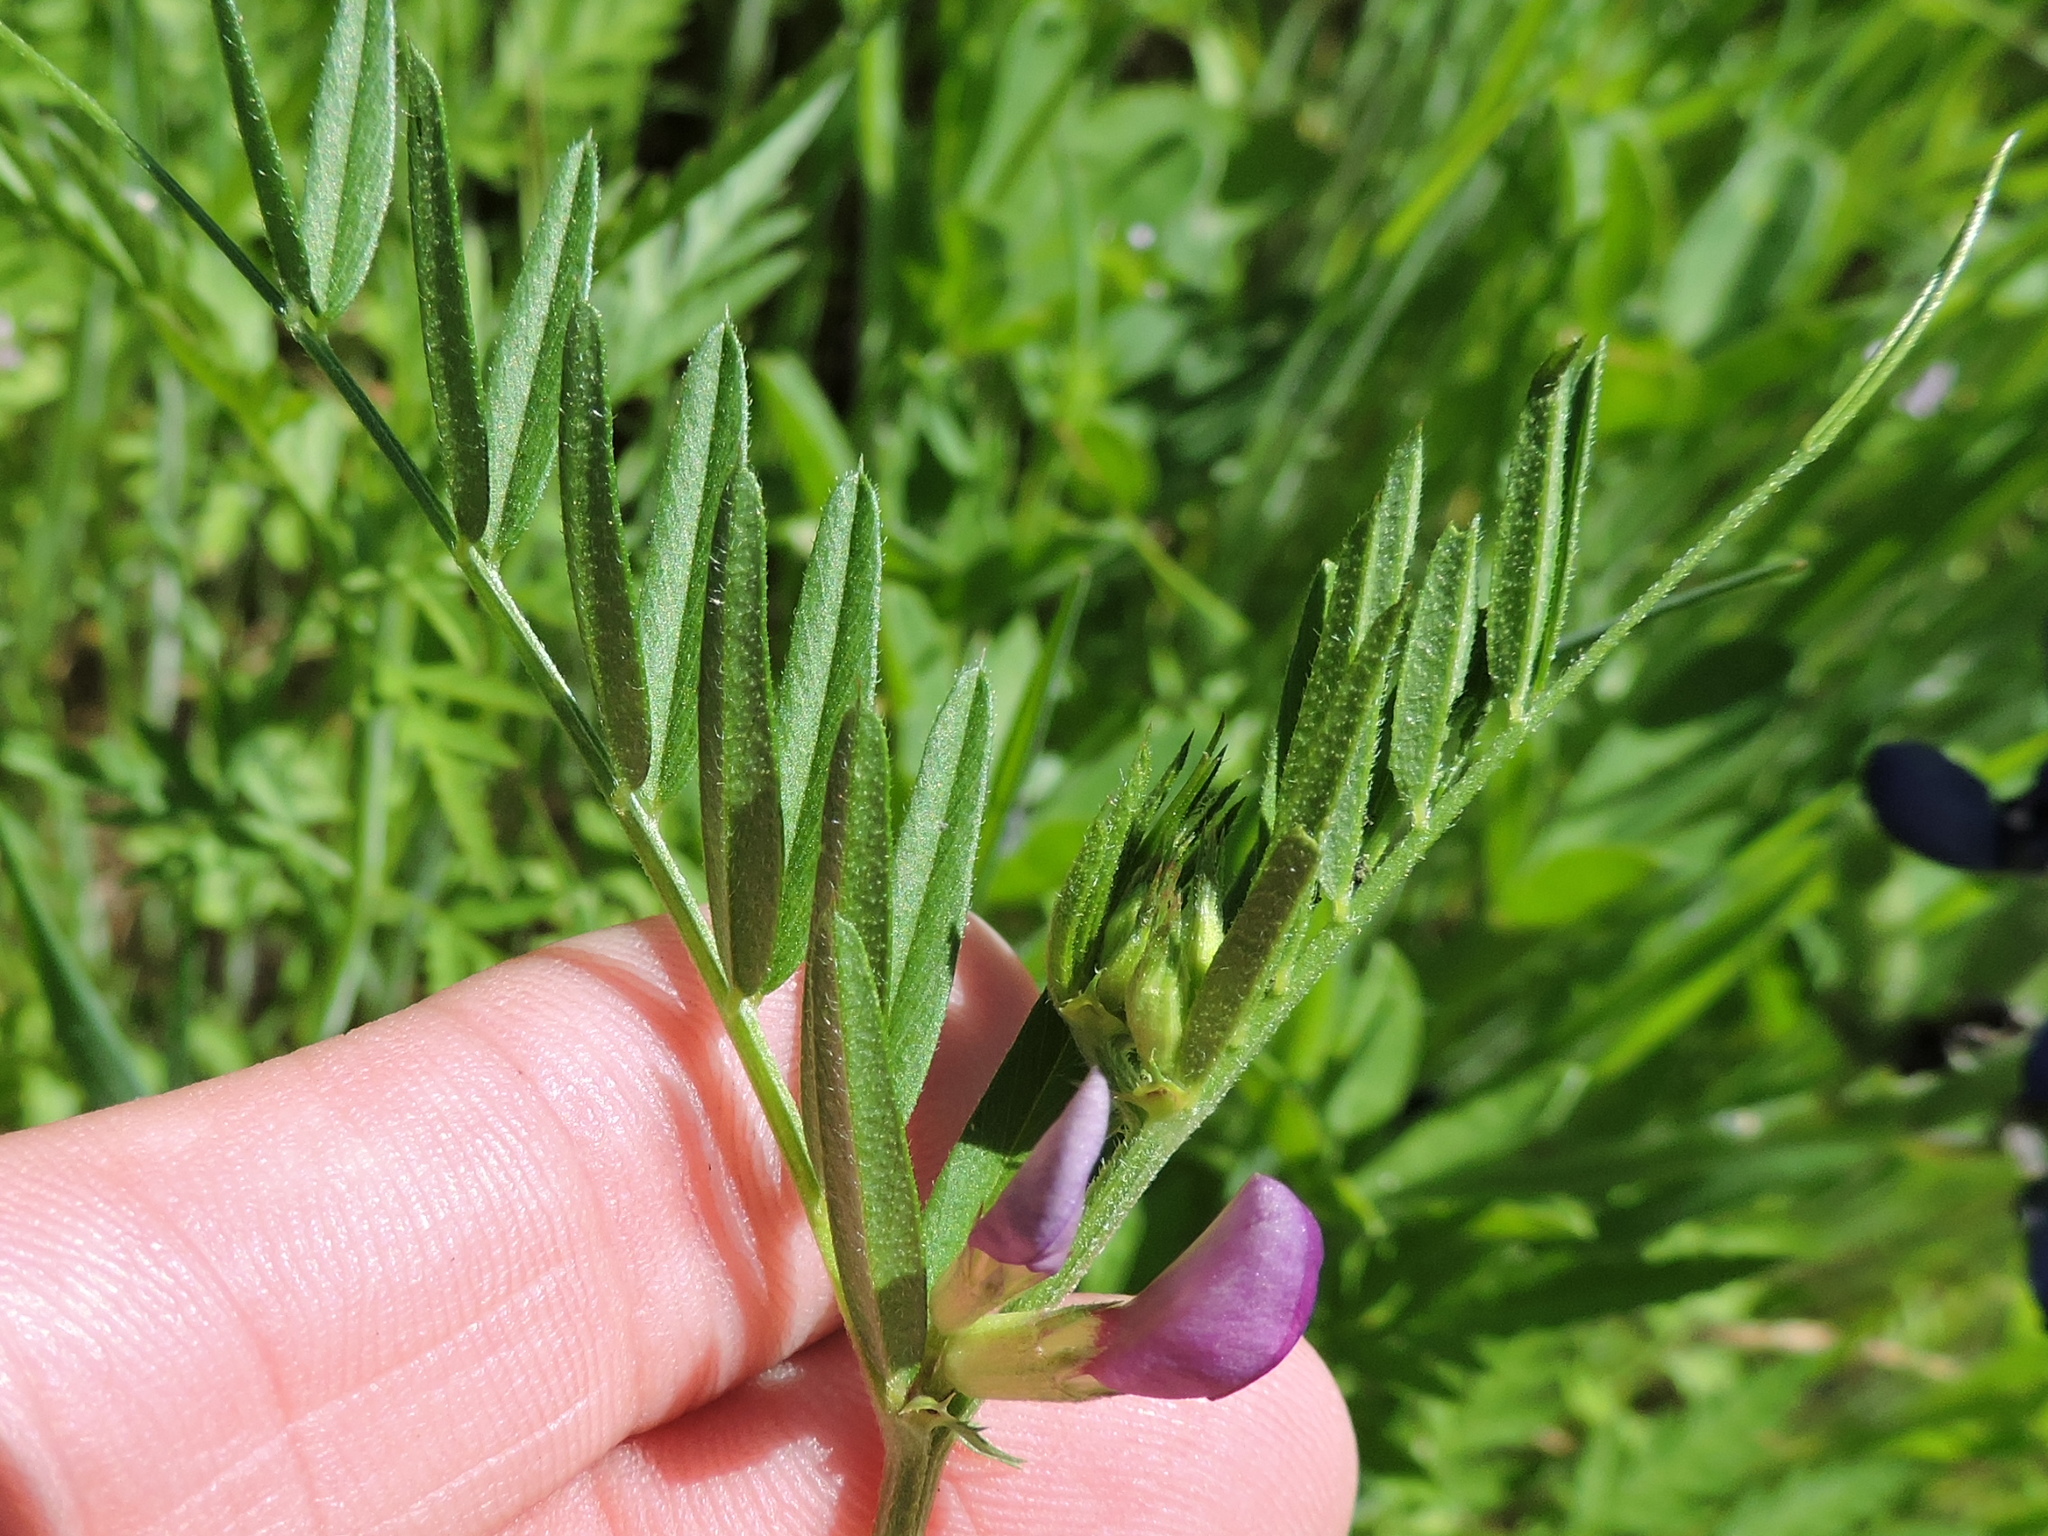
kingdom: Plantae
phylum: Tracheophyta
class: Magnoliopsida
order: Fabales
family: Fabaceae
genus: Vicia
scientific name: Vicia sativa
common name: Garden vetch
